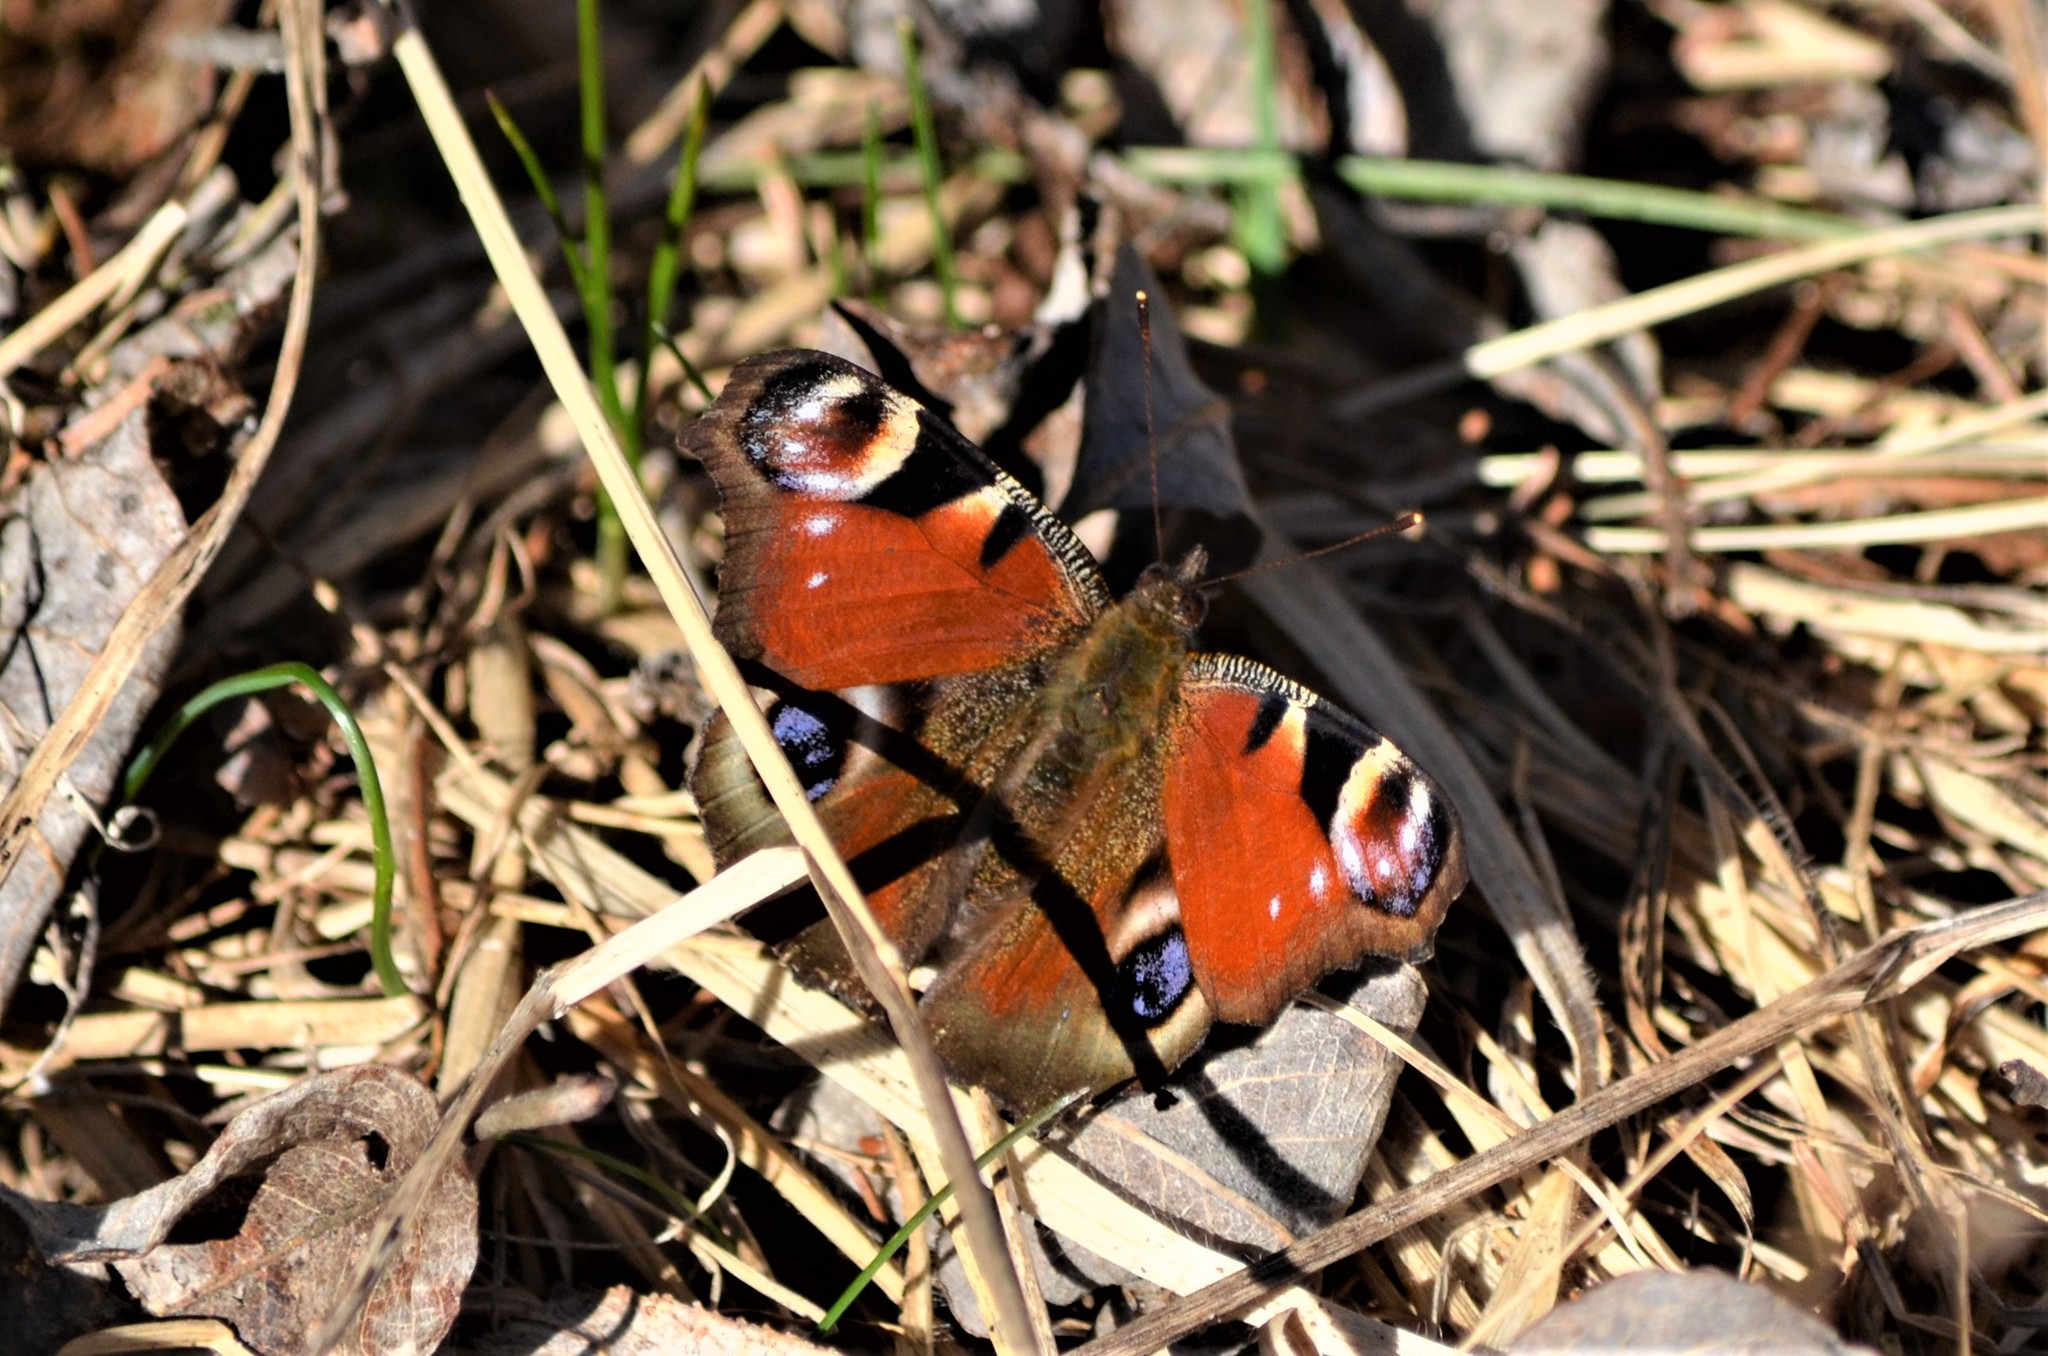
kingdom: Animalia
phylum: Arthropoda
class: Insecta
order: Lepidoptera
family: Nymphalidae
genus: Aglais
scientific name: Aglais io
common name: Peacock
